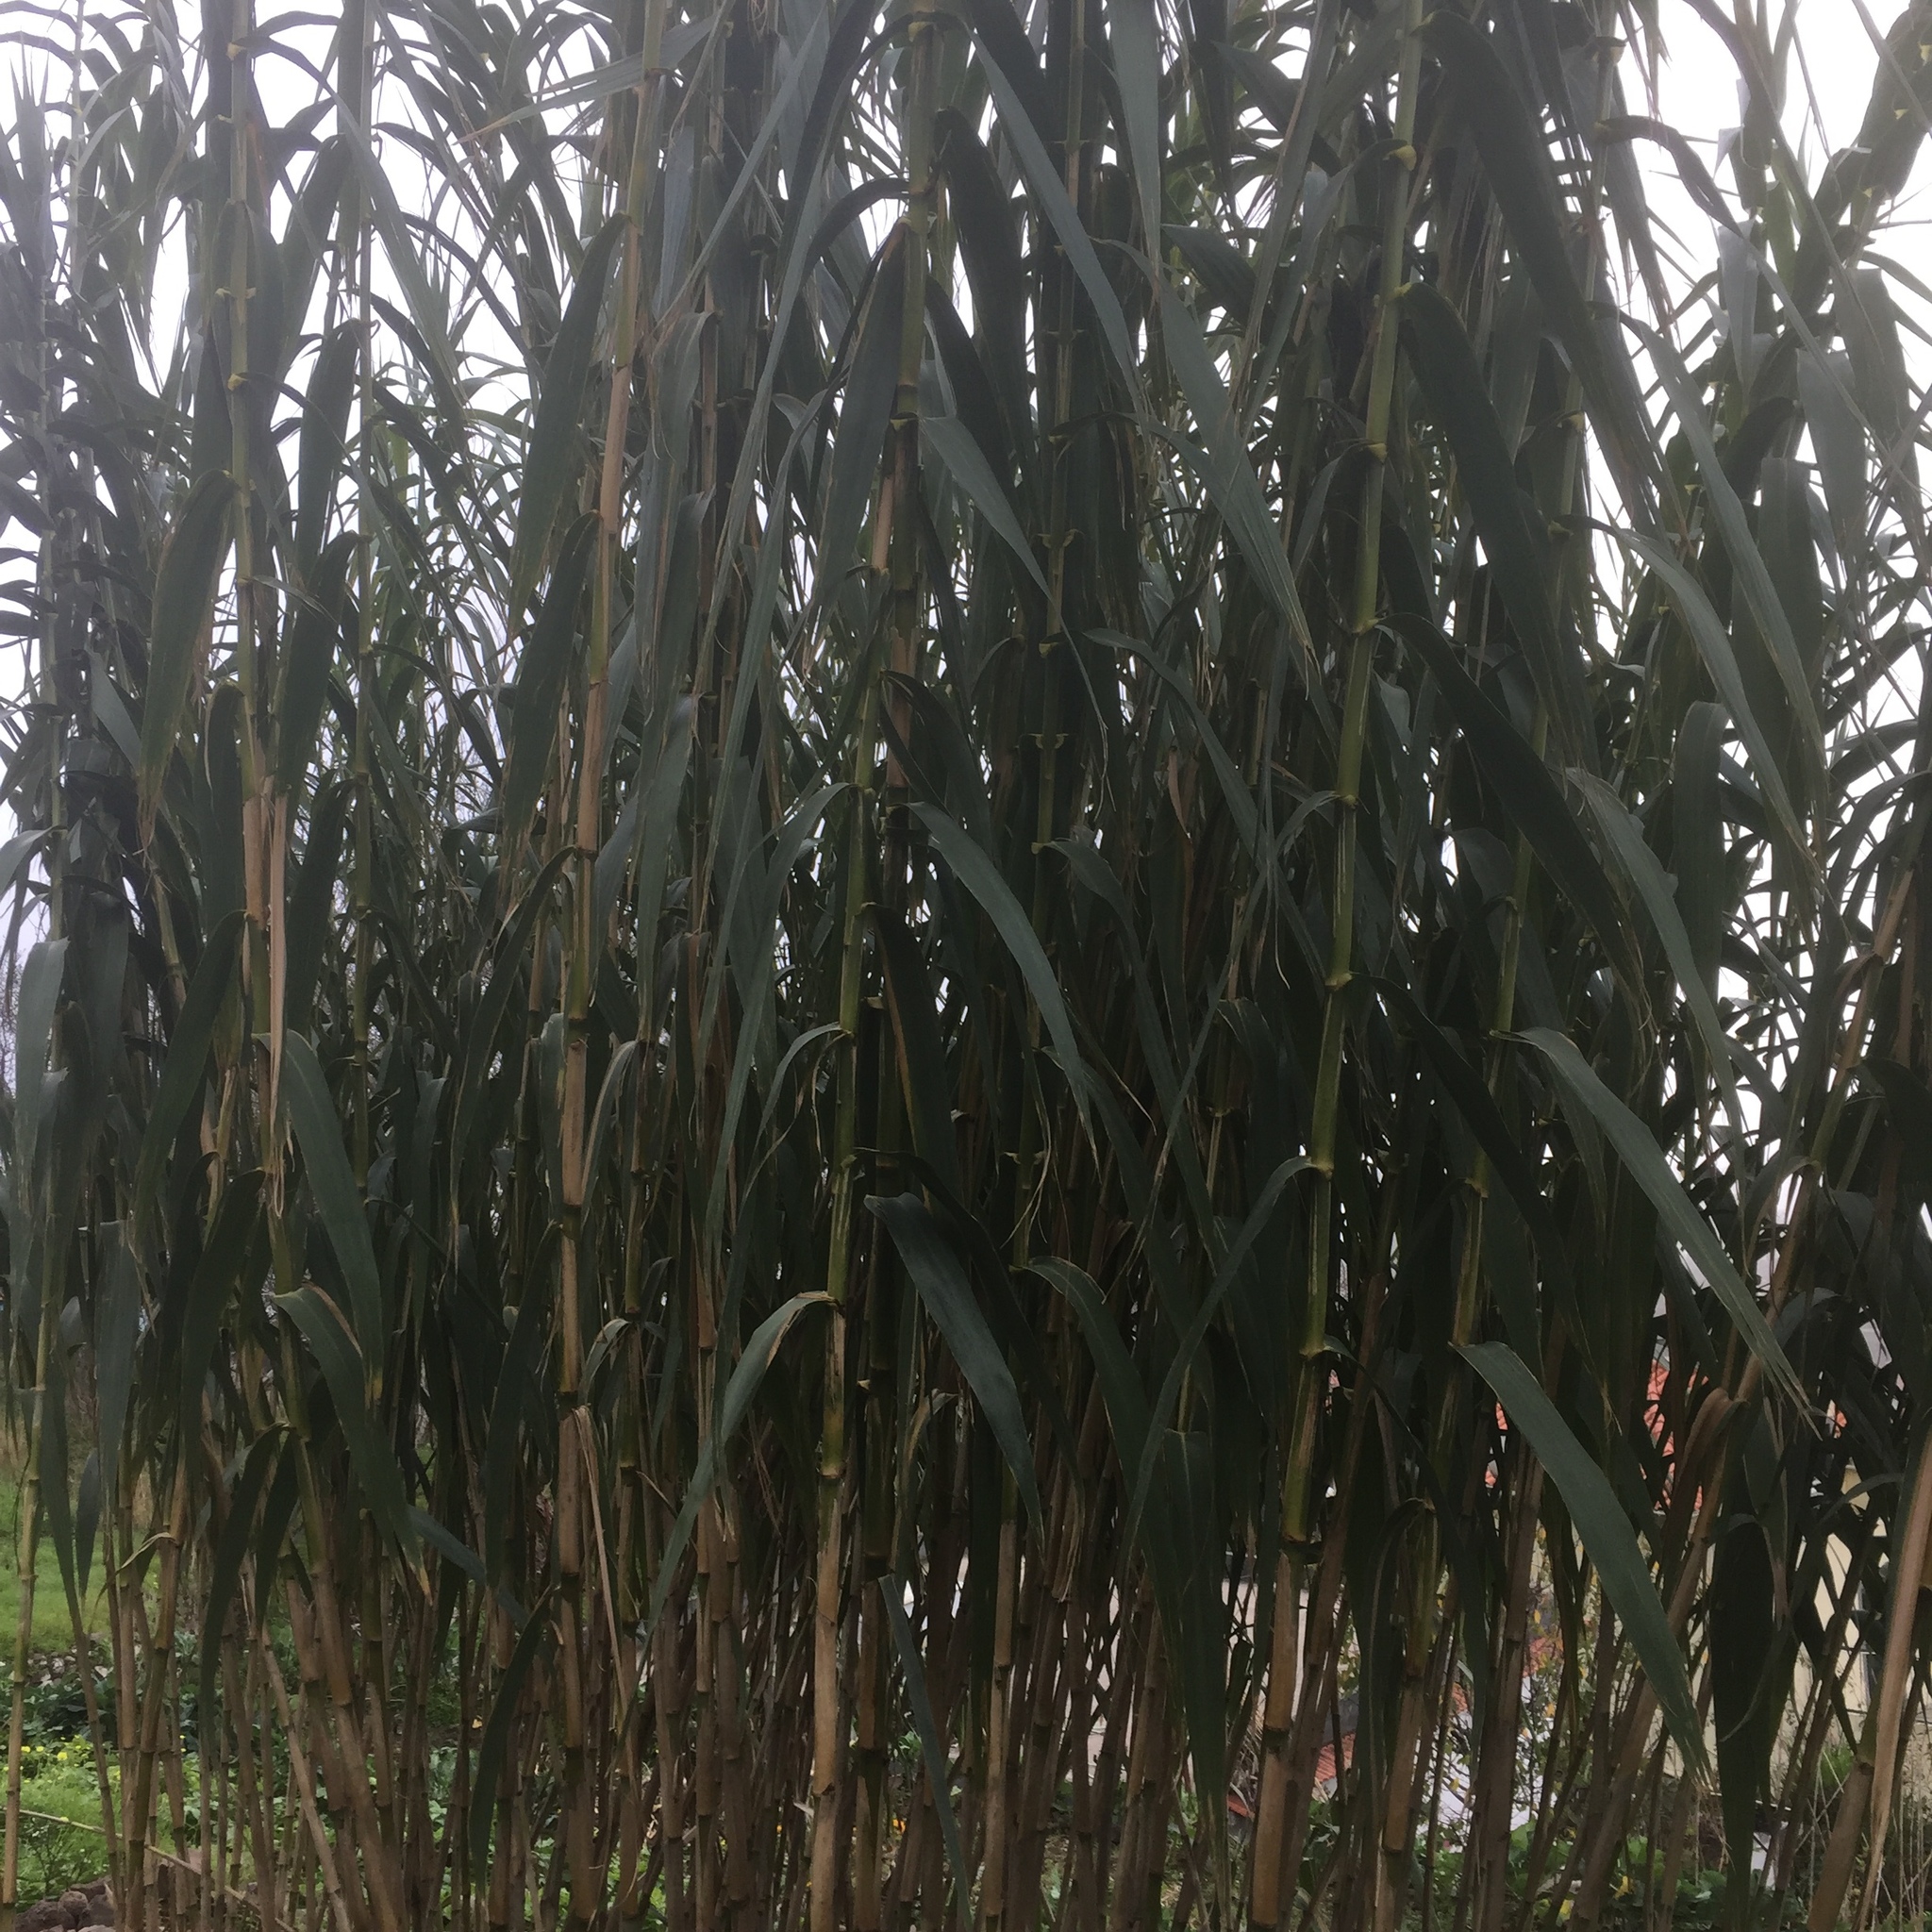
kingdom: Plantae
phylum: Tracheophyta
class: Liliopsida
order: Poales
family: Poaceae
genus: Arundo
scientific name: Arundo donax
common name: Giant reed
